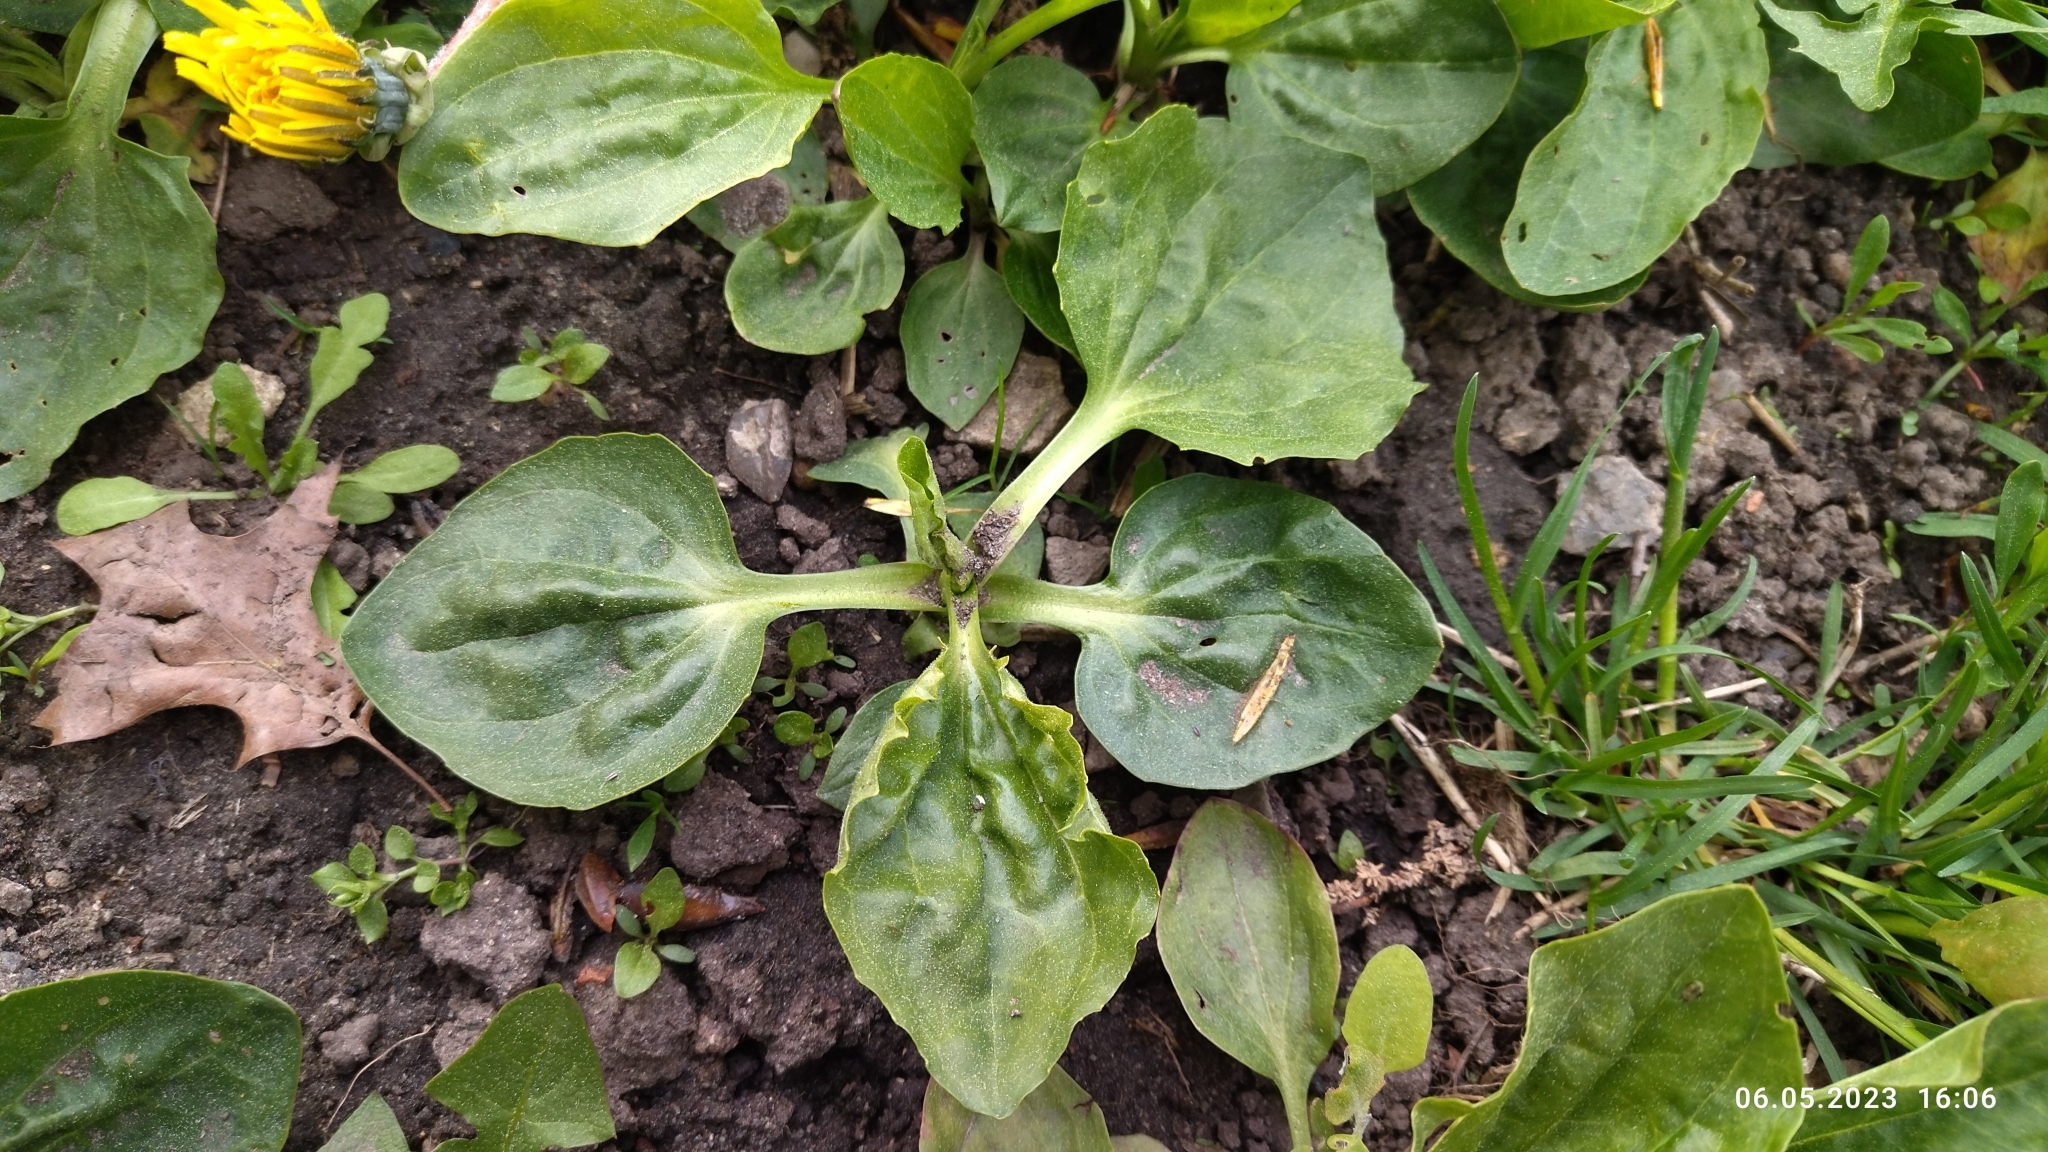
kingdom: Plantae
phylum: Tracheophyta
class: Magnoliopsida
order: Lamiales
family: Plantaginaceae
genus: Plantago
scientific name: Plantago major
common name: Common plantain
